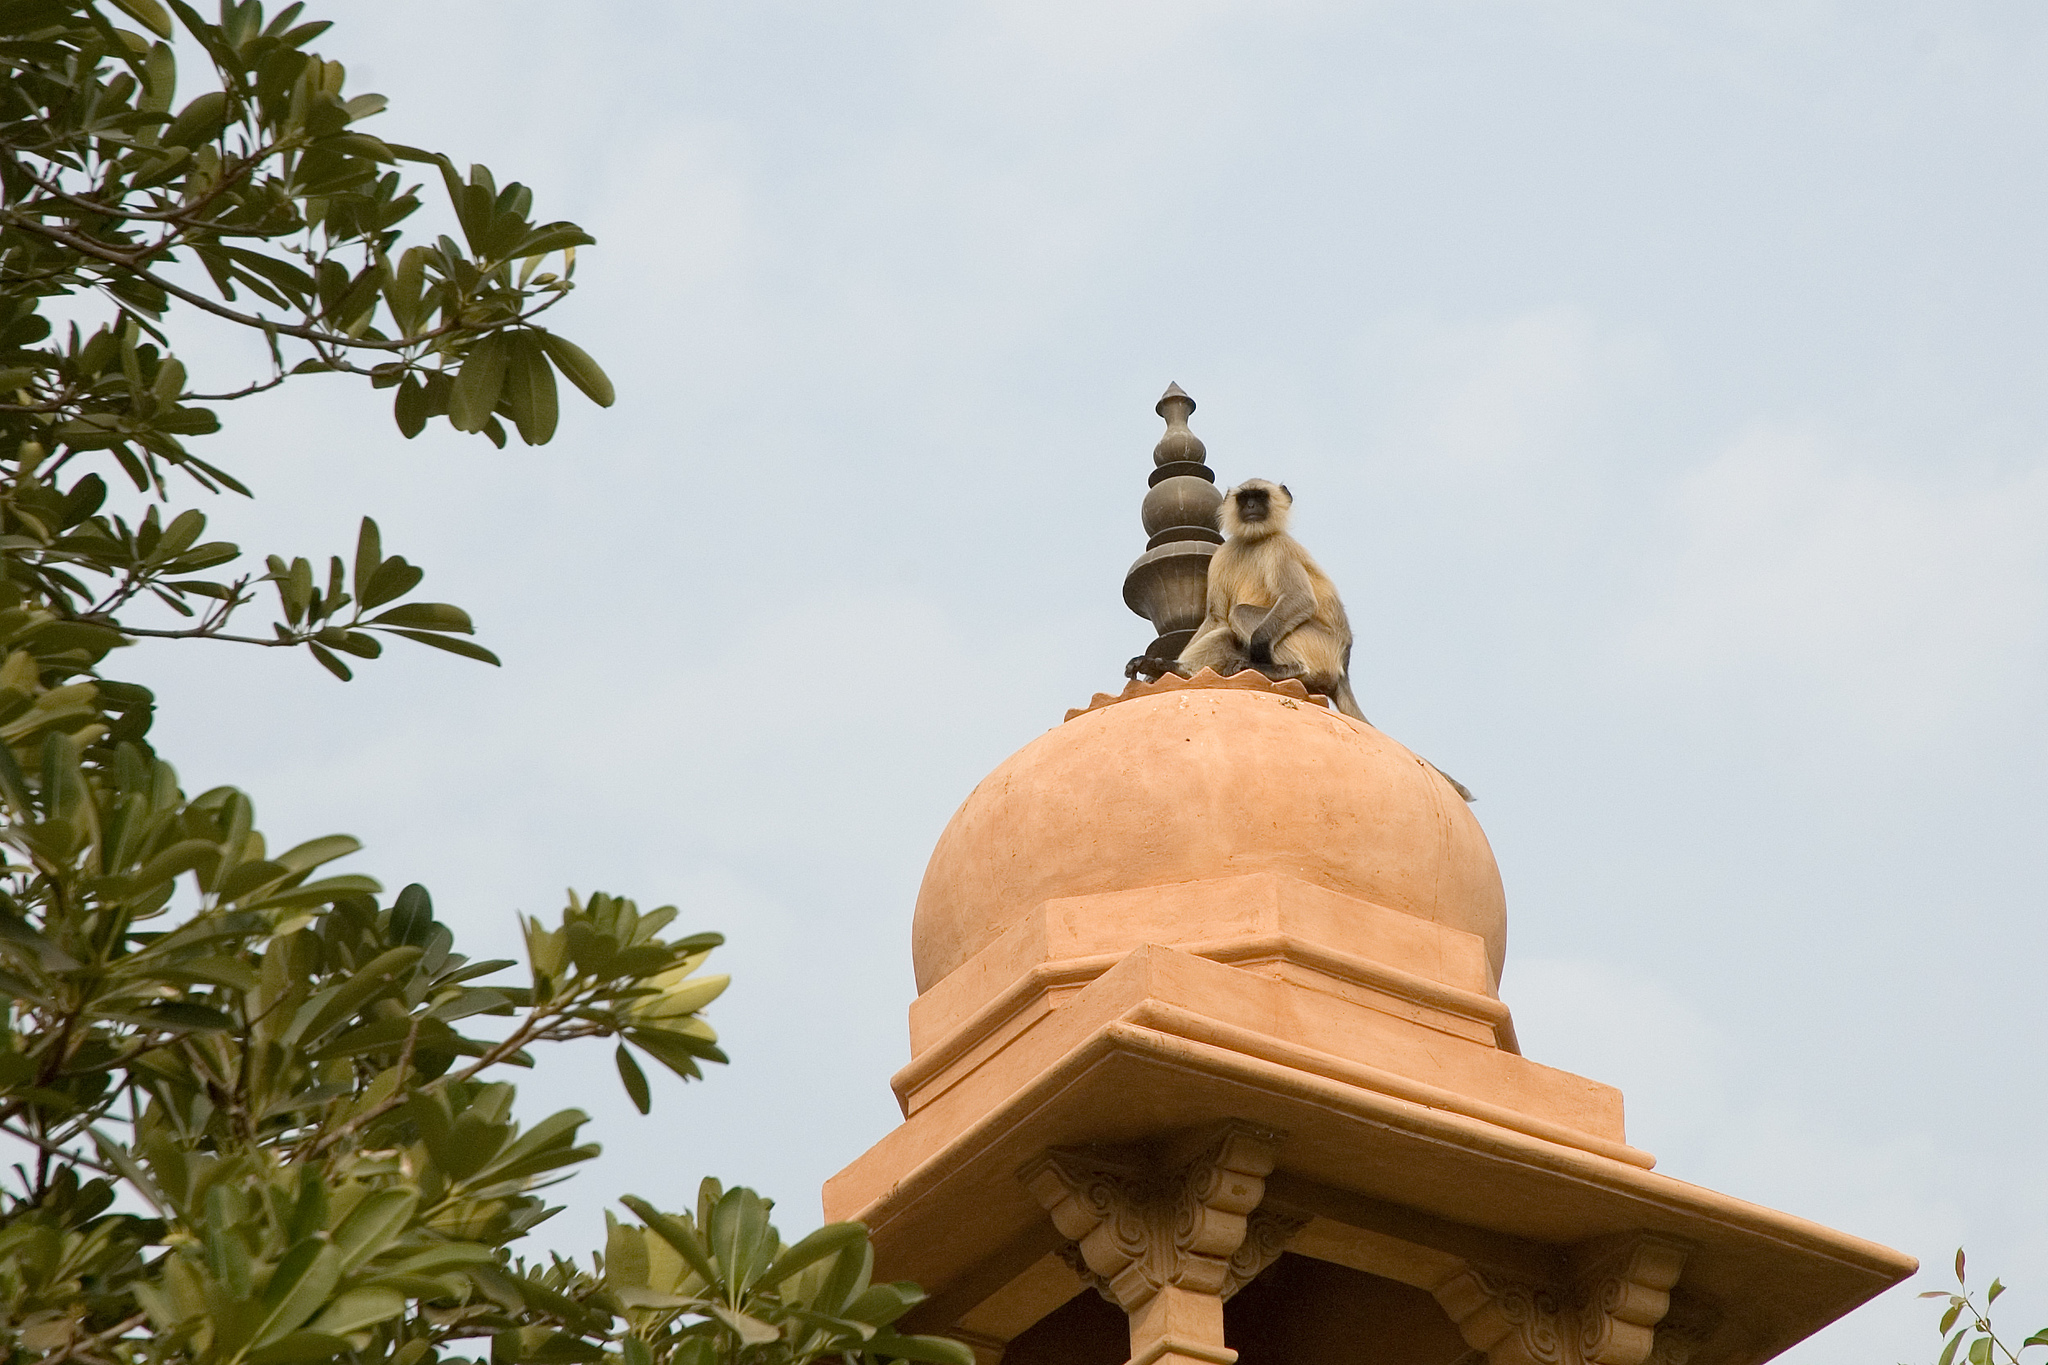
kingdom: Animalia
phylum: Chordata
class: Mammalia
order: Primates
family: Cercopithecidae
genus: Semnopithecus
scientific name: Semnopithecus entellus
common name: Northern plains gray langur
